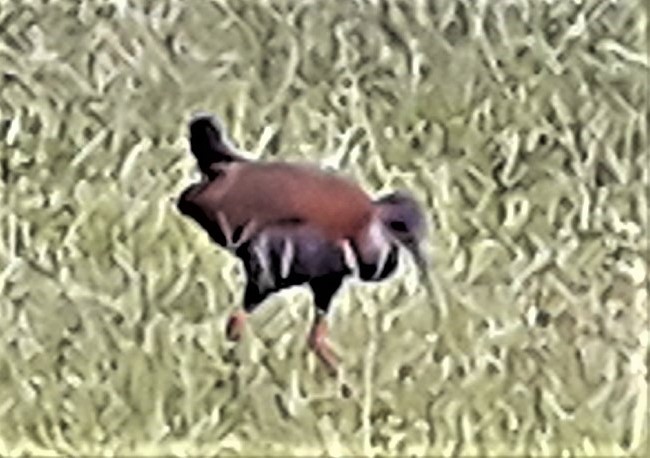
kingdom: Animalia
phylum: Chordata
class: Aves
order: Gruiformes
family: Rallidae
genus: Aramides
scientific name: Aramides saracura
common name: Slaty-breasted wood rail
